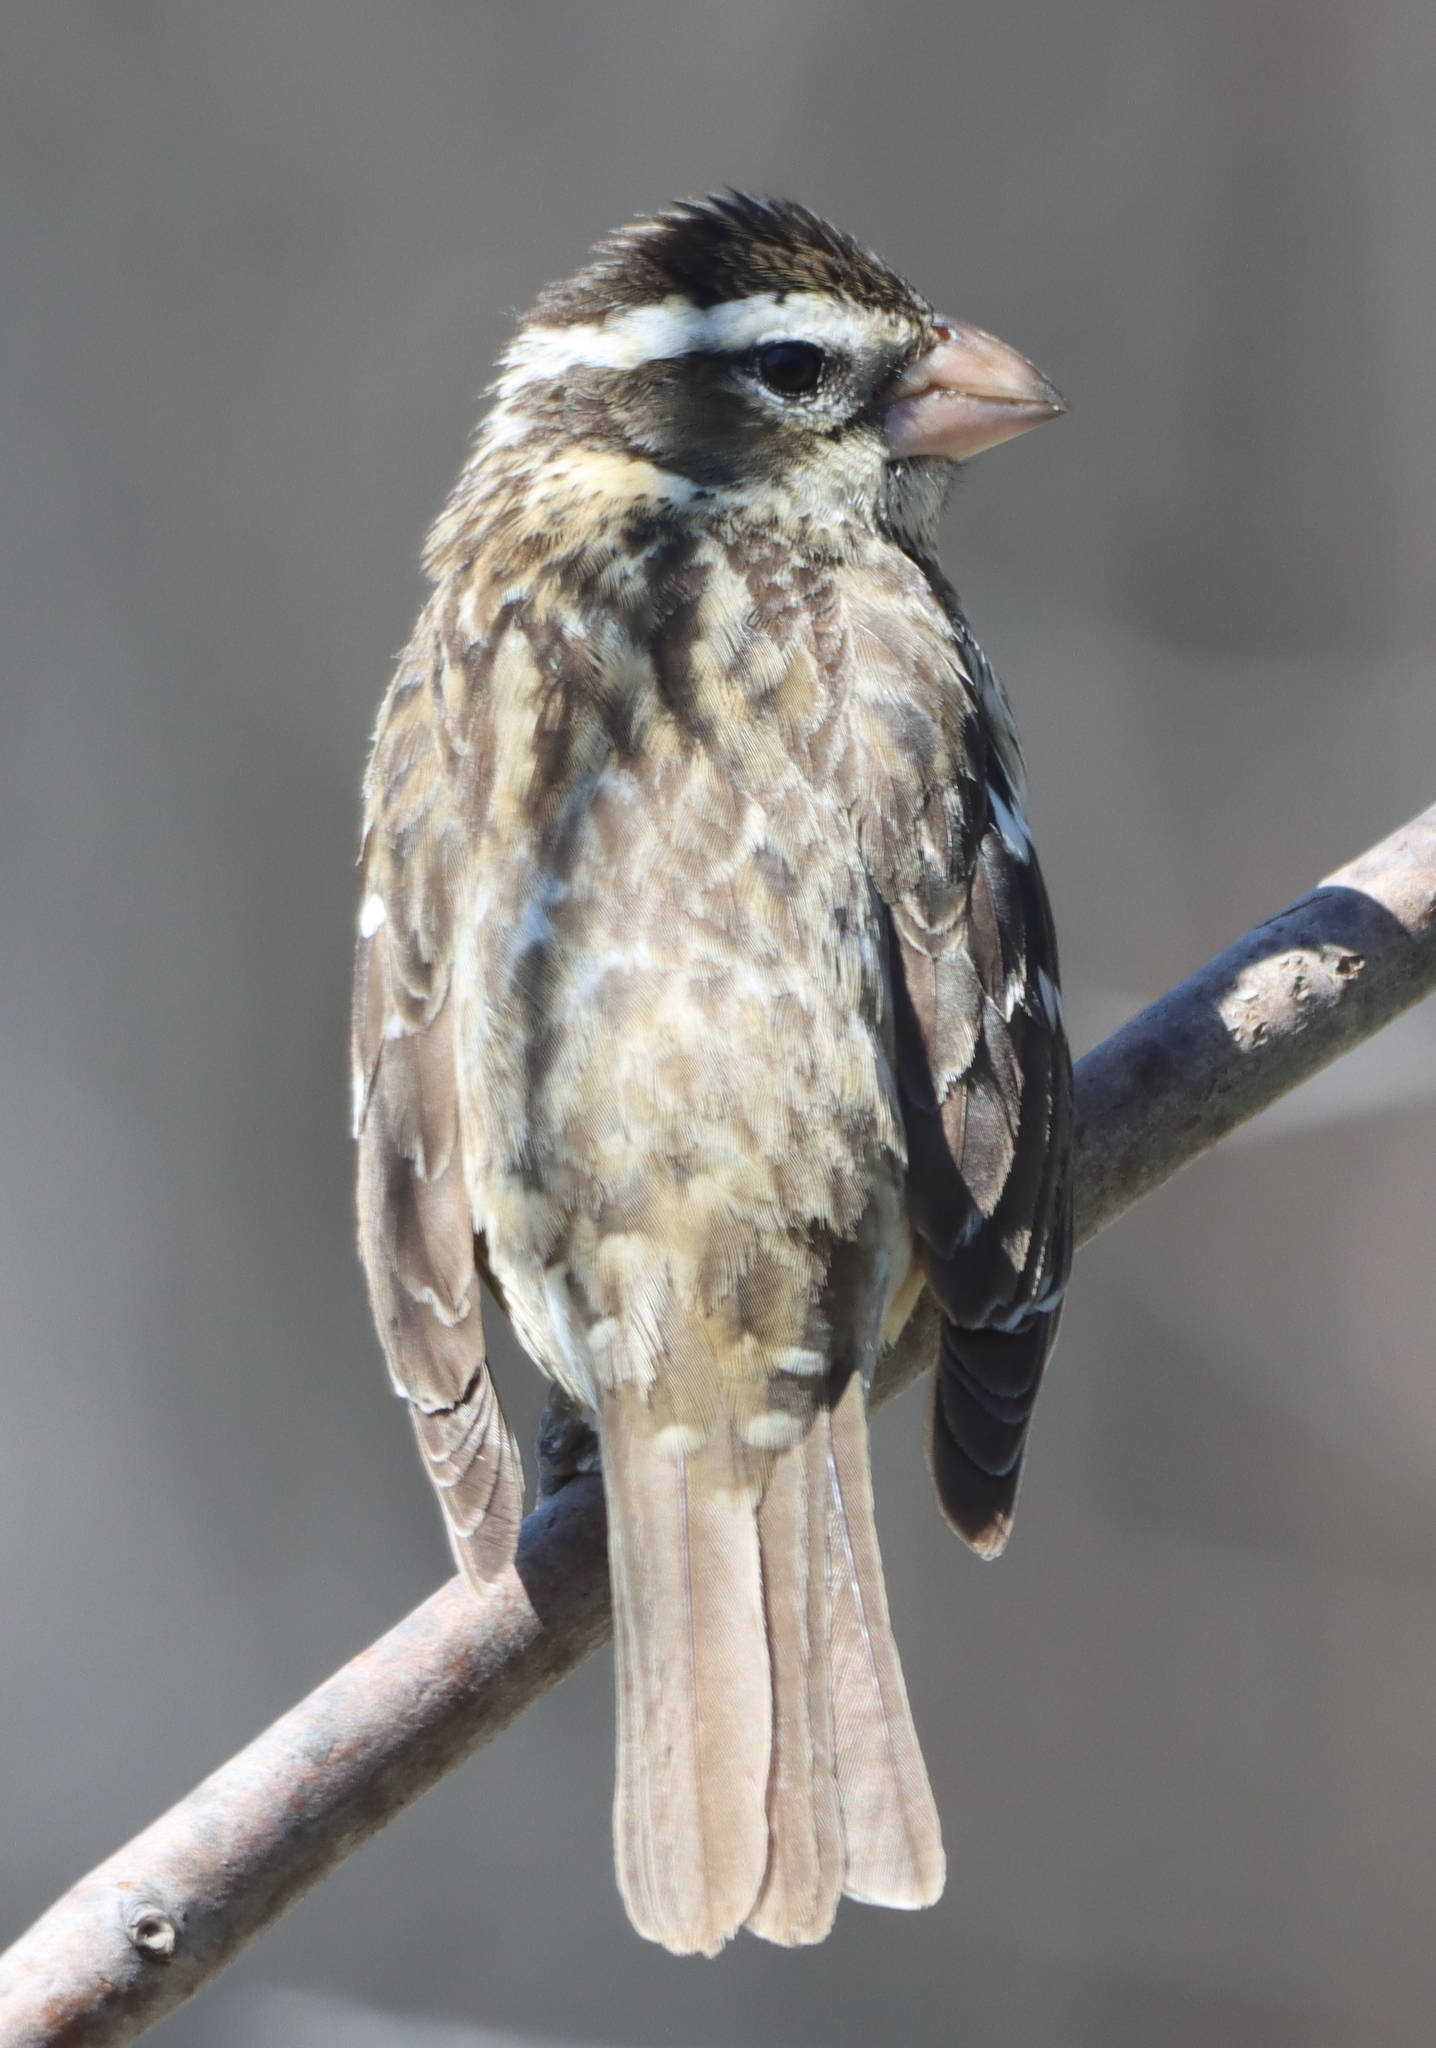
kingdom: Animalia
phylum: Chordata
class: Aves
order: Passeriformes
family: Cardinalidae
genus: Pheucticus
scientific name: Pheucticus ludovicianus
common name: Rose-breasted grosbeak
